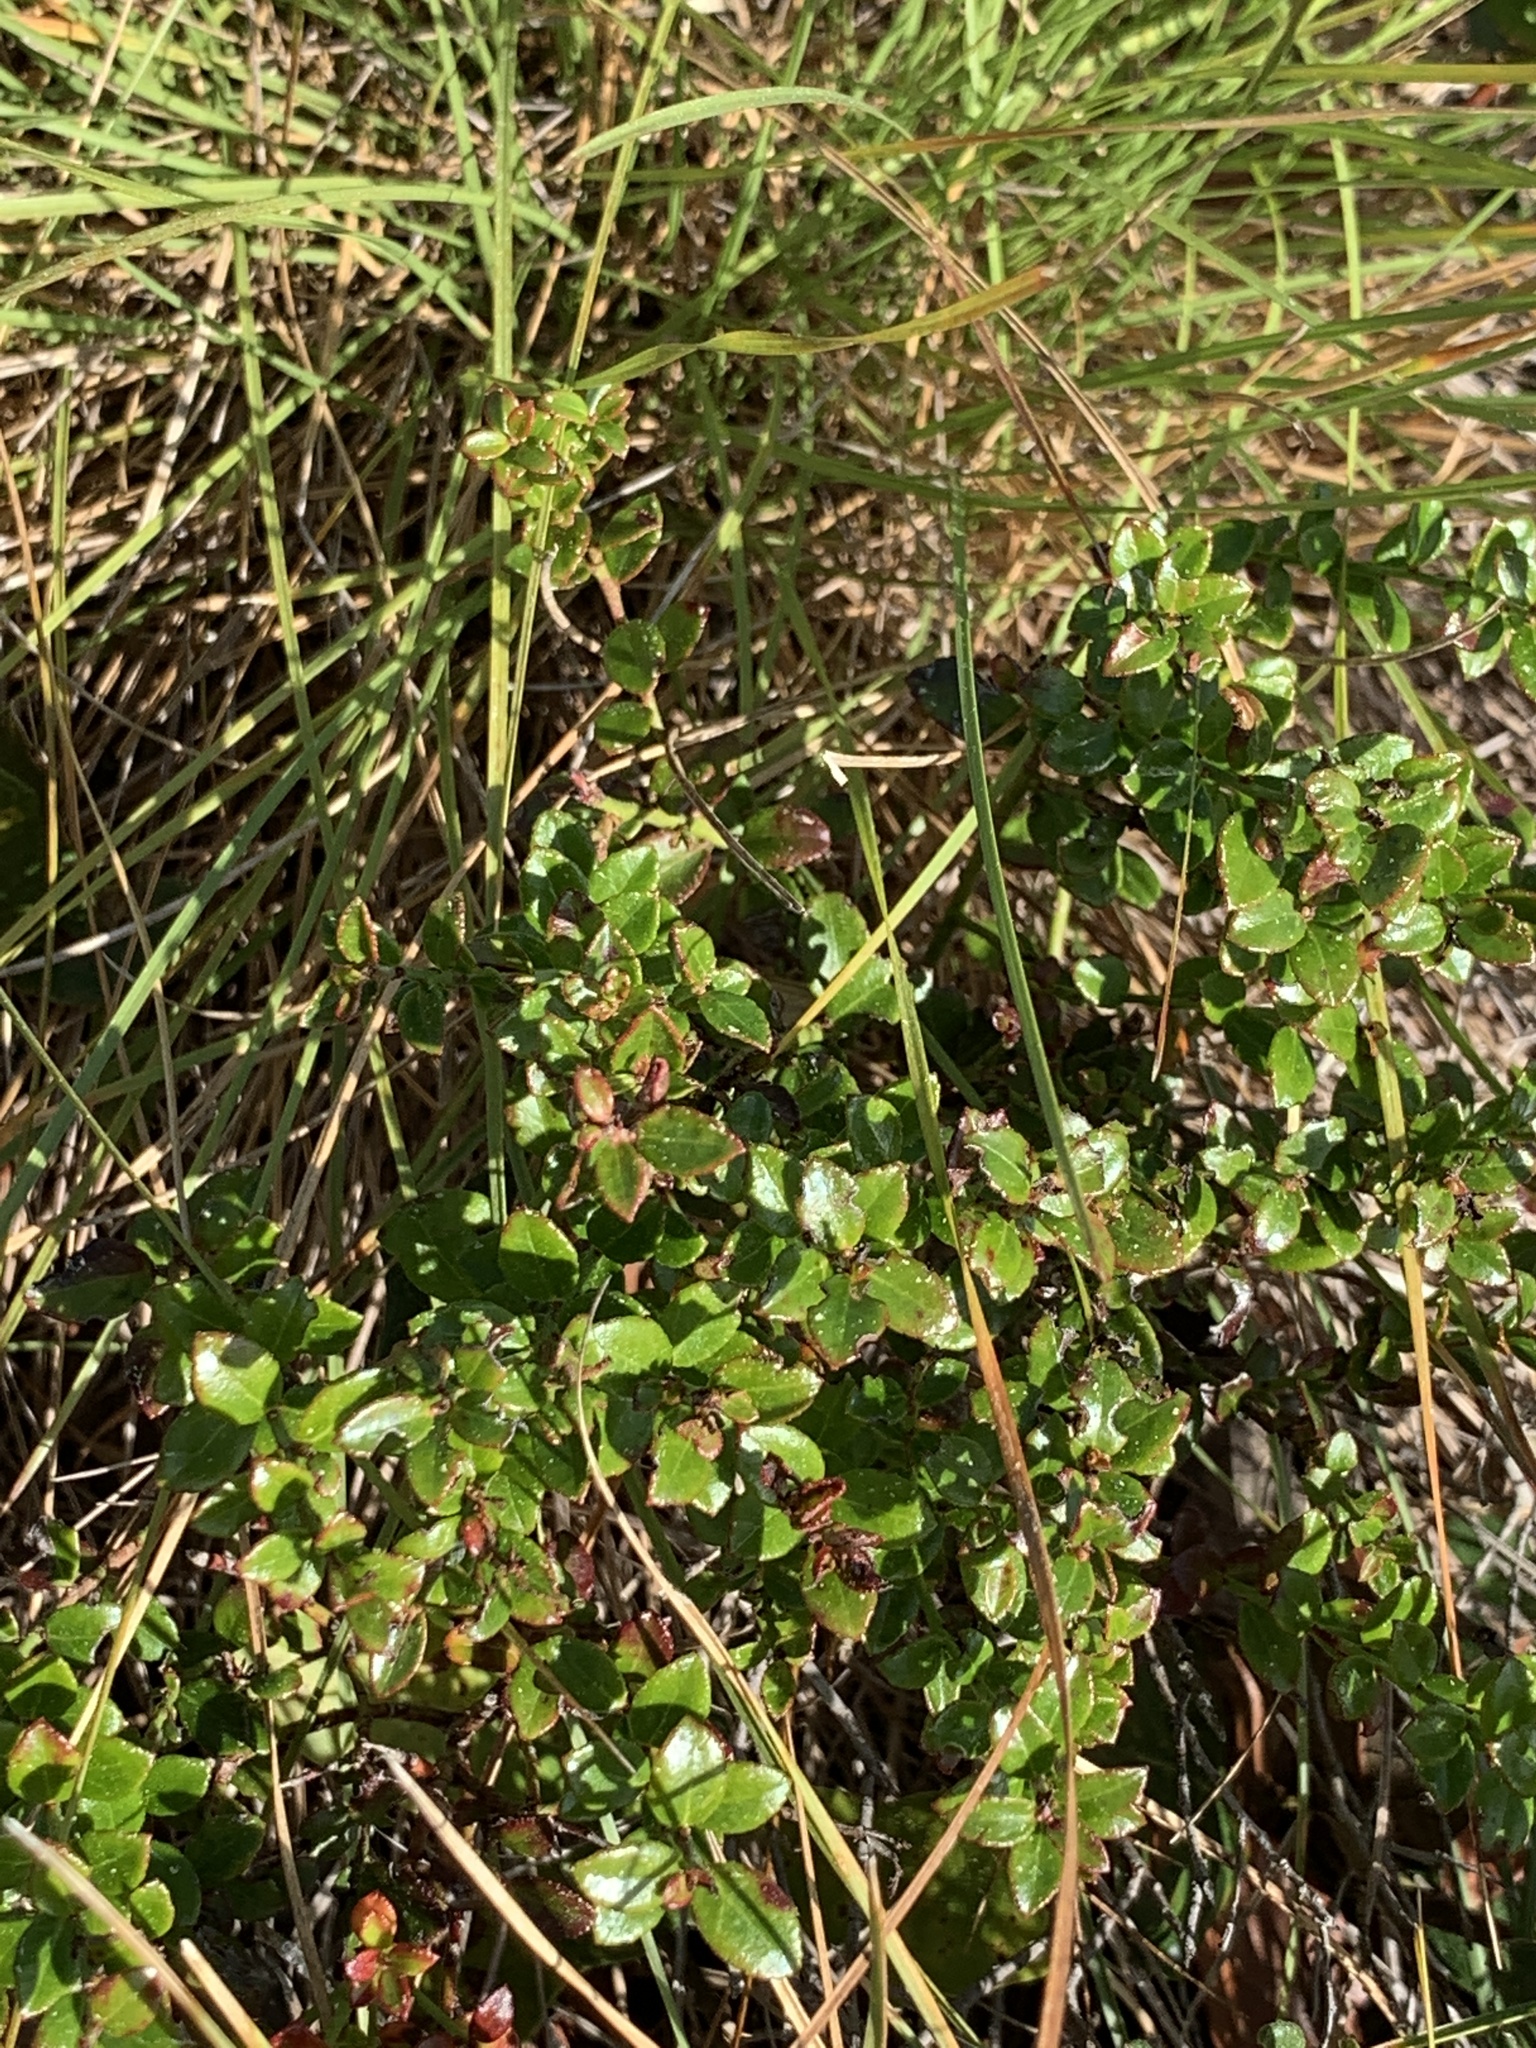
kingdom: Plantae
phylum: Tracheophyta
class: Magnoliopsida
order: Ericales
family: Ericaceae
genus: Vaccinium
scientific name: Vaccinium myrsinites
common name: Evergreen blueberry
